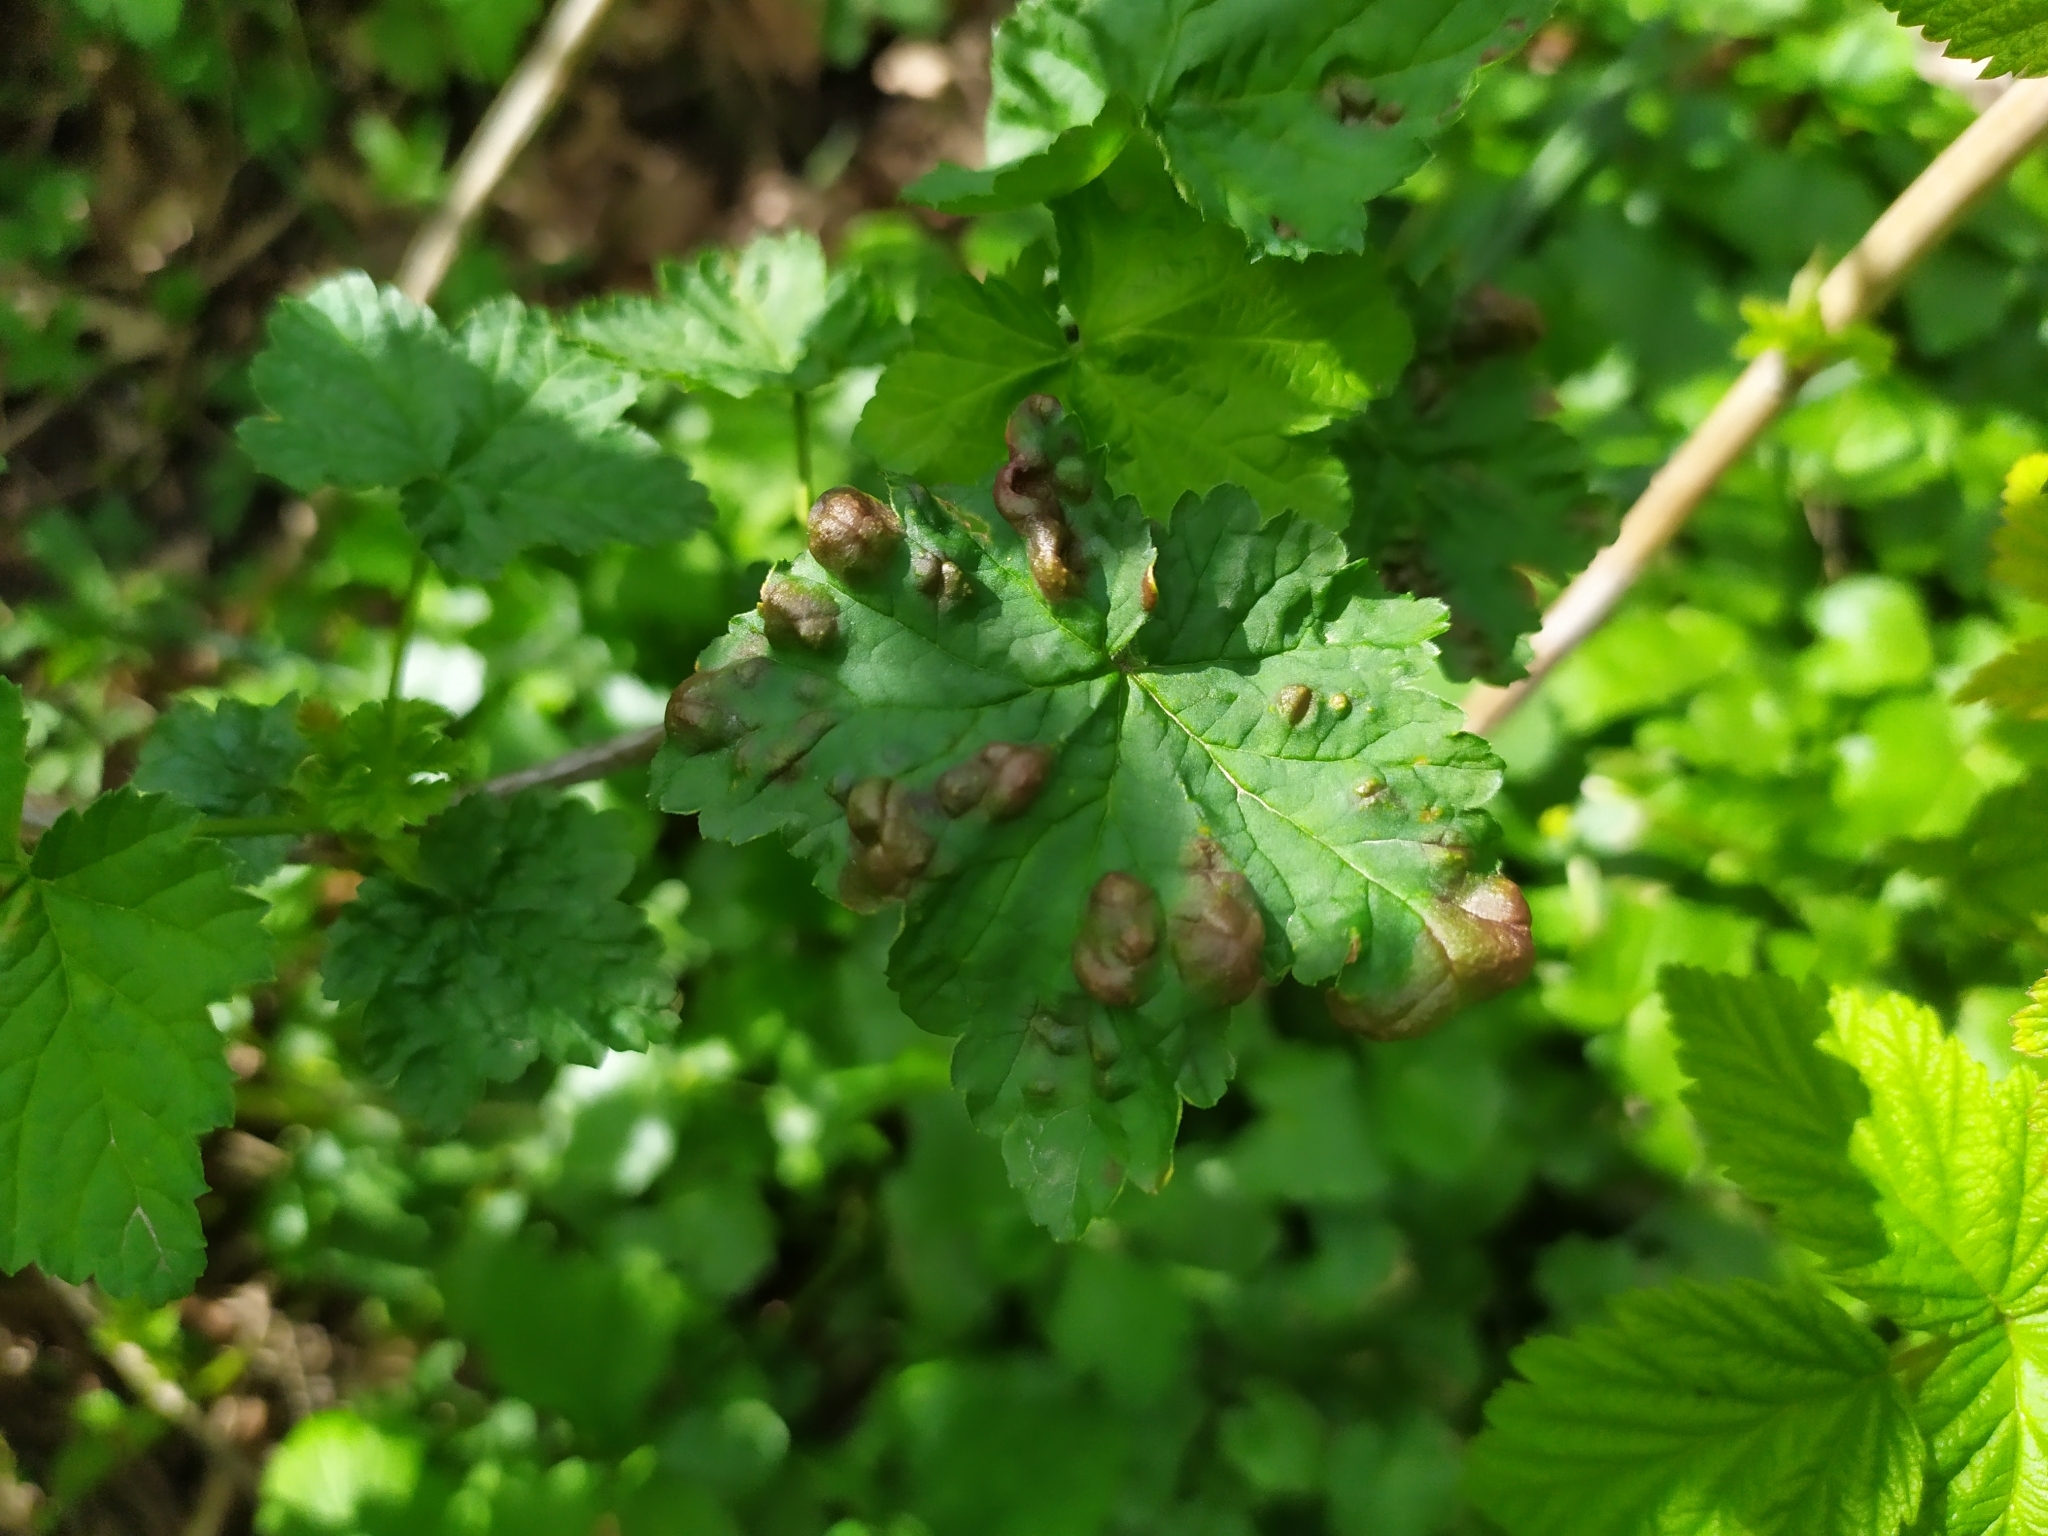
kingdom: Animalia
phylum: Arthropoda
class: Insecta
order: Hemiptera
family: Aphididae
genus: Cryptomyzus
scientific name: Cryptomyzus ribis
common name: Currant aphid
